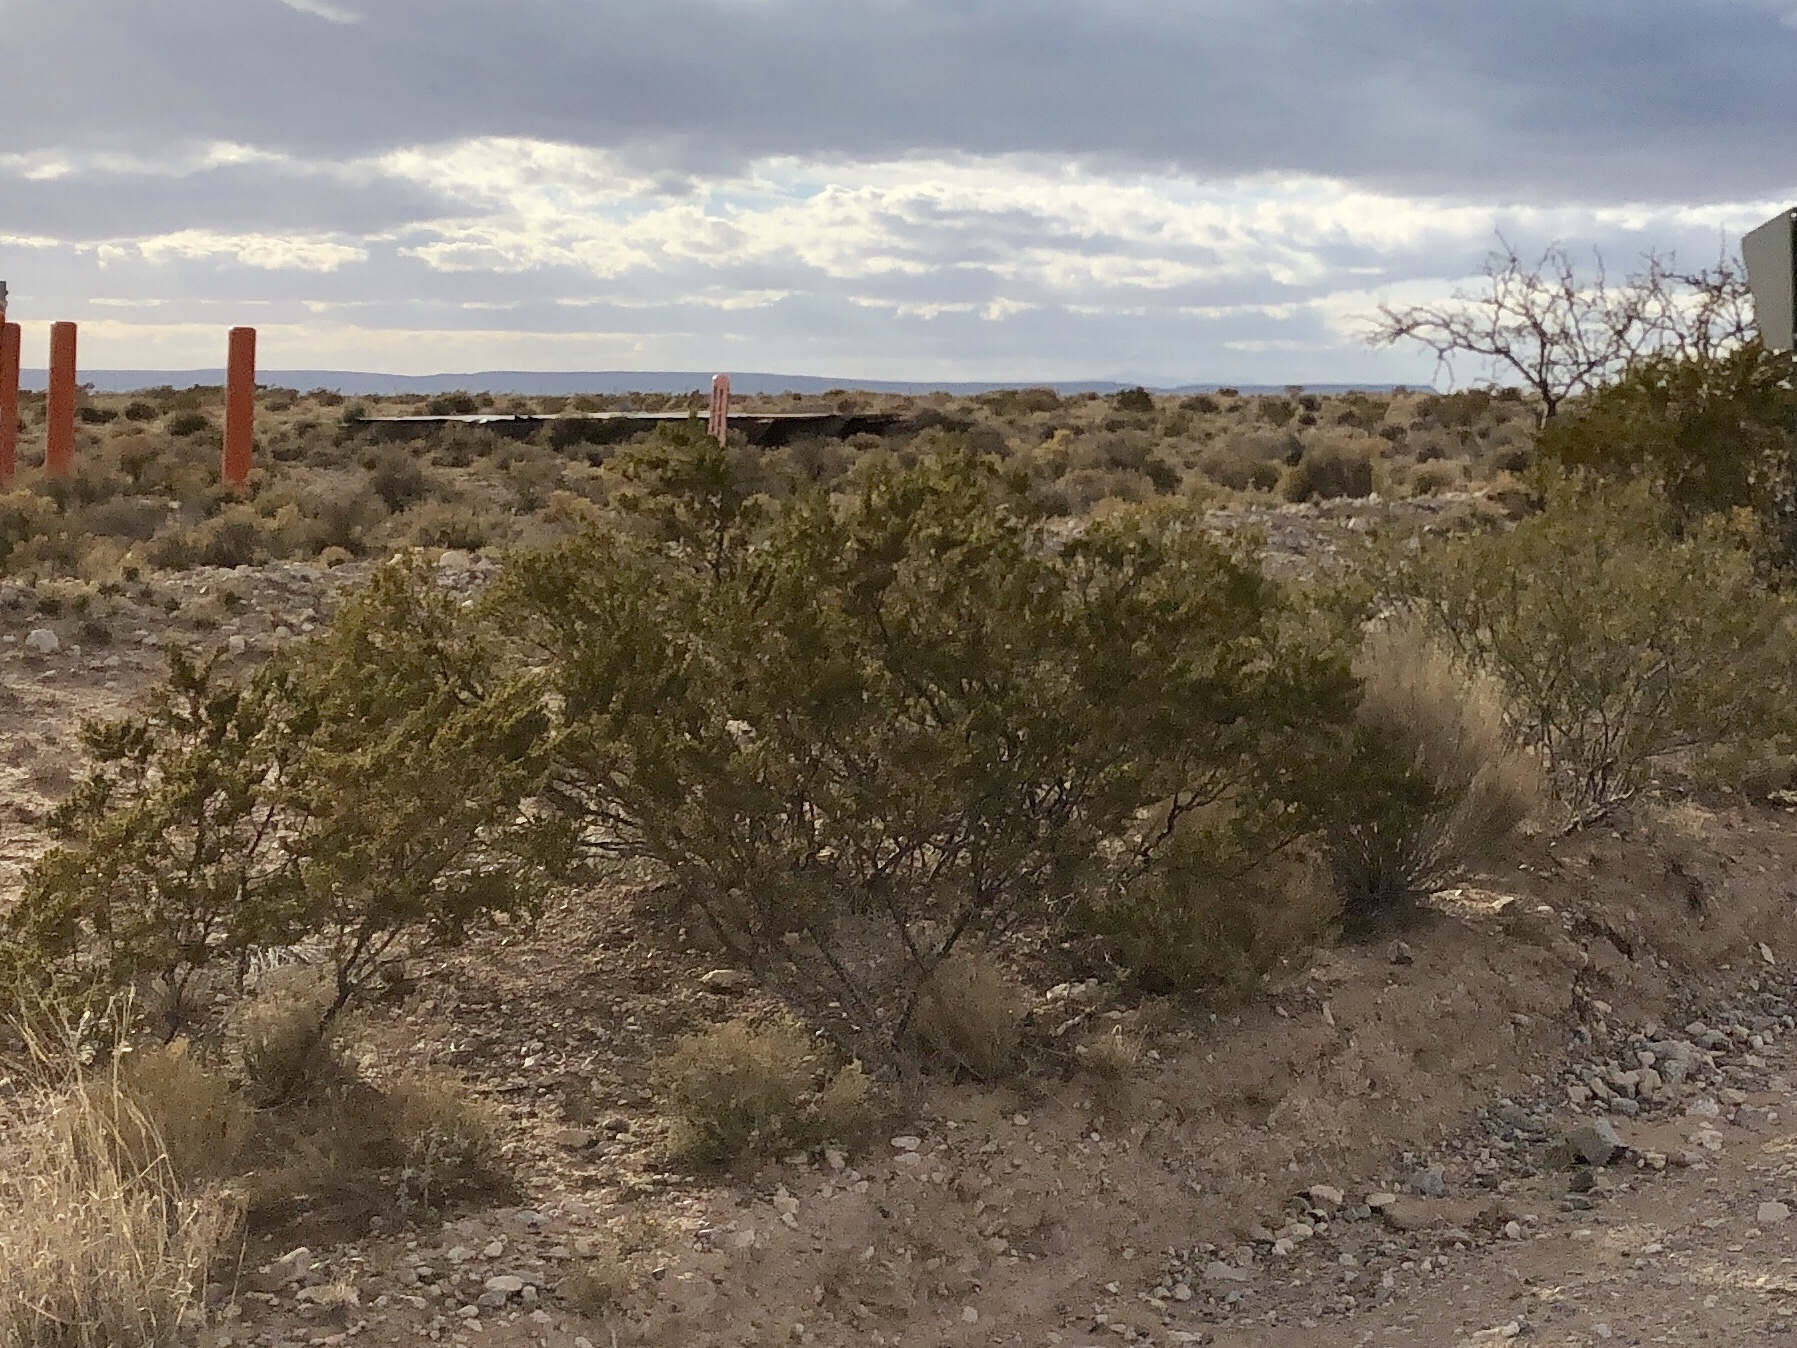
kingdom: Plantae
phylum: Tracheophyta
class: Magnoliopsida
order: Zygophyllales
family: Zygophyllaceae
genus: Larrea
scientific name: Larrea tridentata
